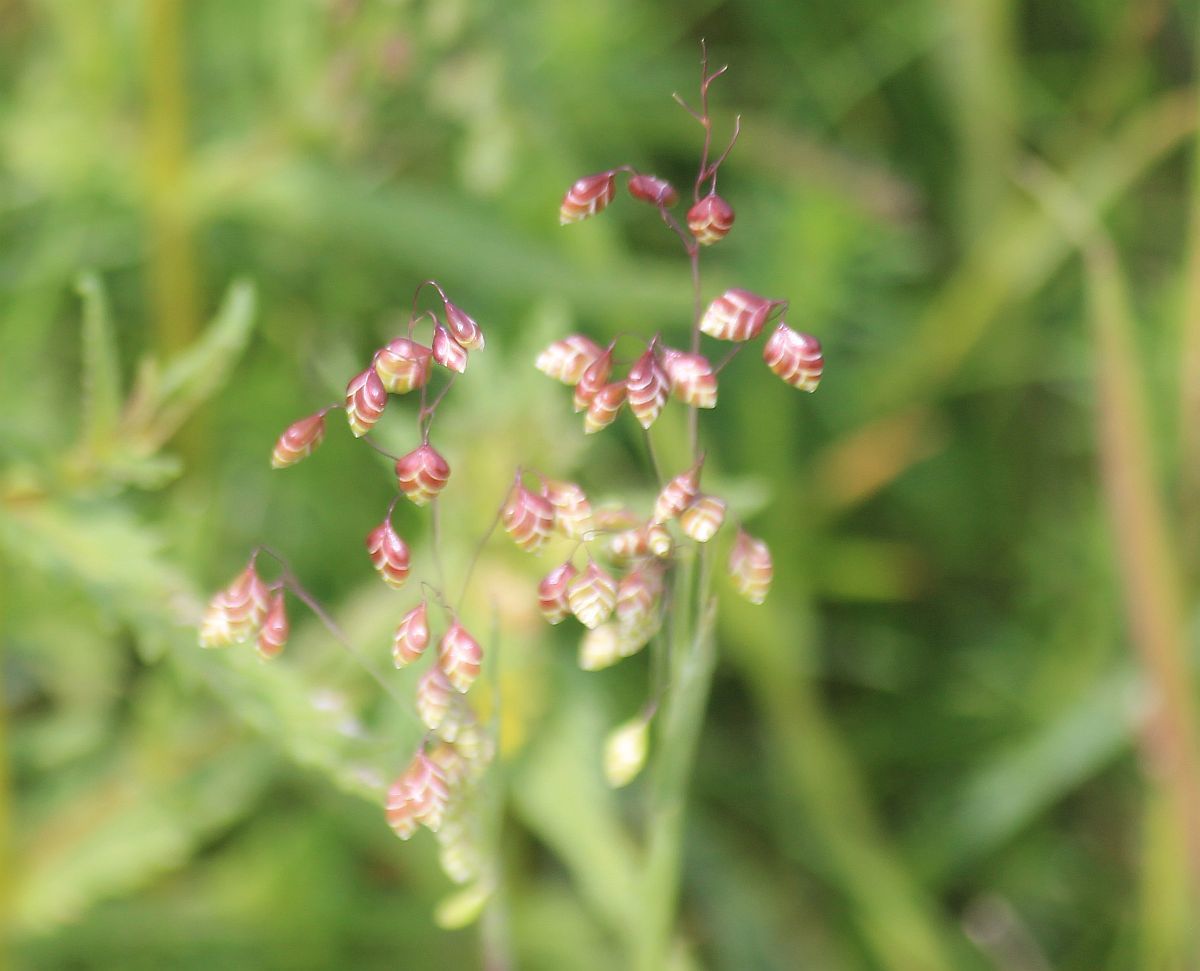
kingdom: Plantae
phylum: Tracheophyta
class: Liliopsida
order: Poales
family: Poaceae
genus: Briza
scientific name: Briza media
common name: Quaking grass
